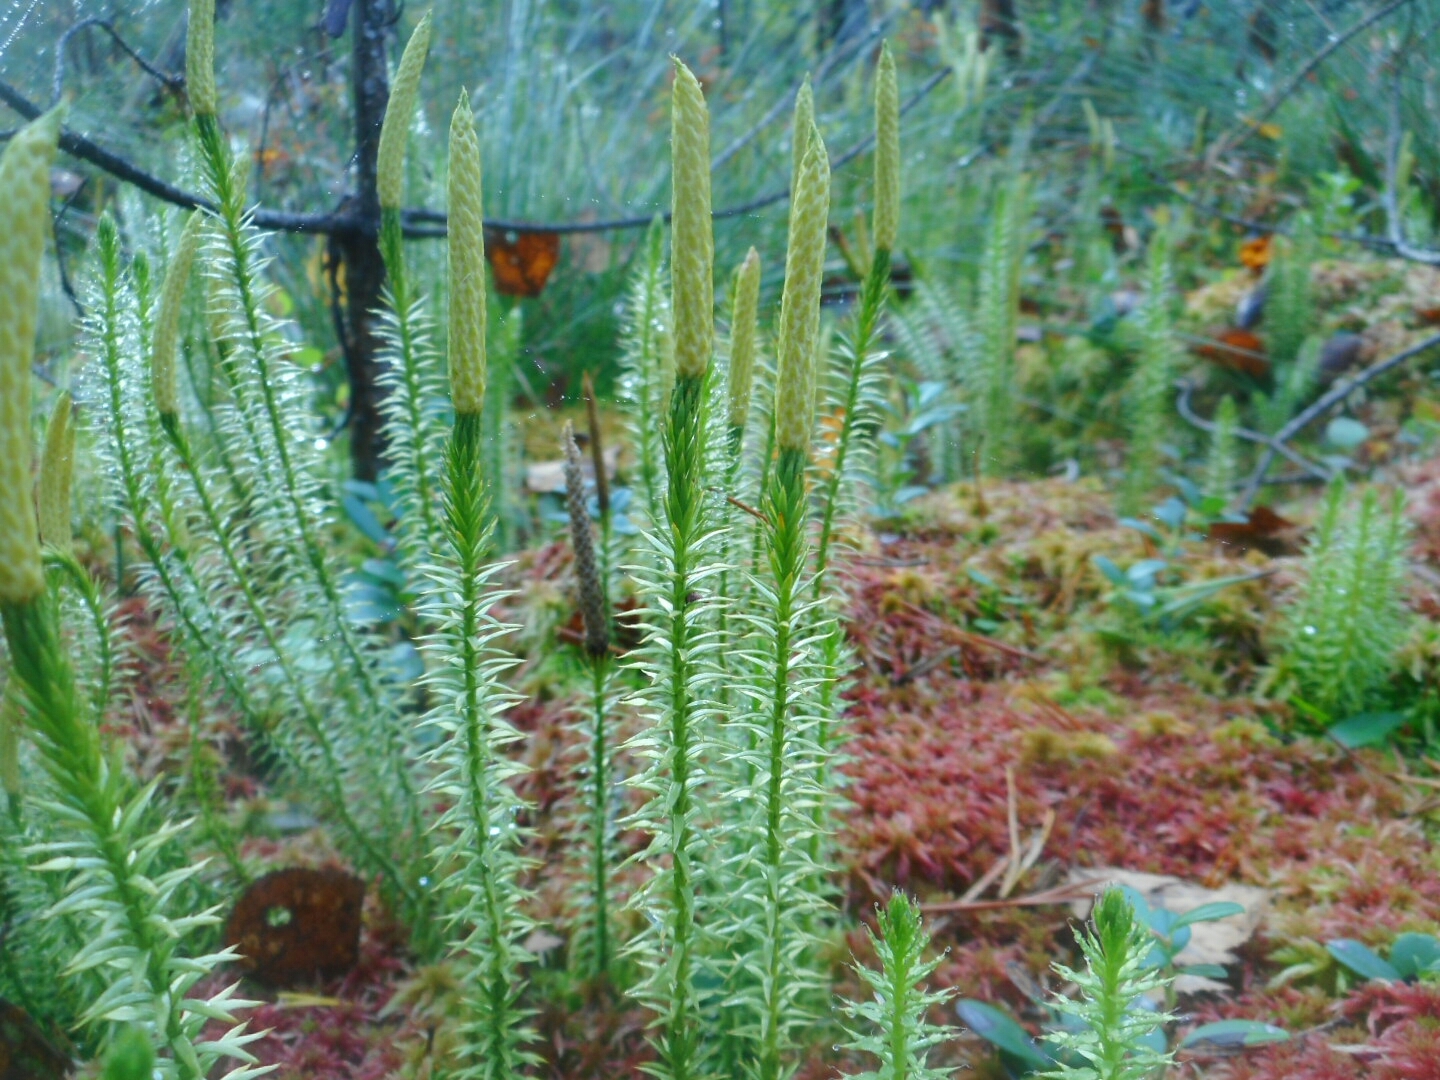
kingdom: Plantae
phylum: Tracheophyta
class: Lycopodiopsida
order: Lycopodiales
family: Lycopodiaceae
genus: Spinulum
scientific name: Spinulum annotinum
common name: Interrupted club-moss
